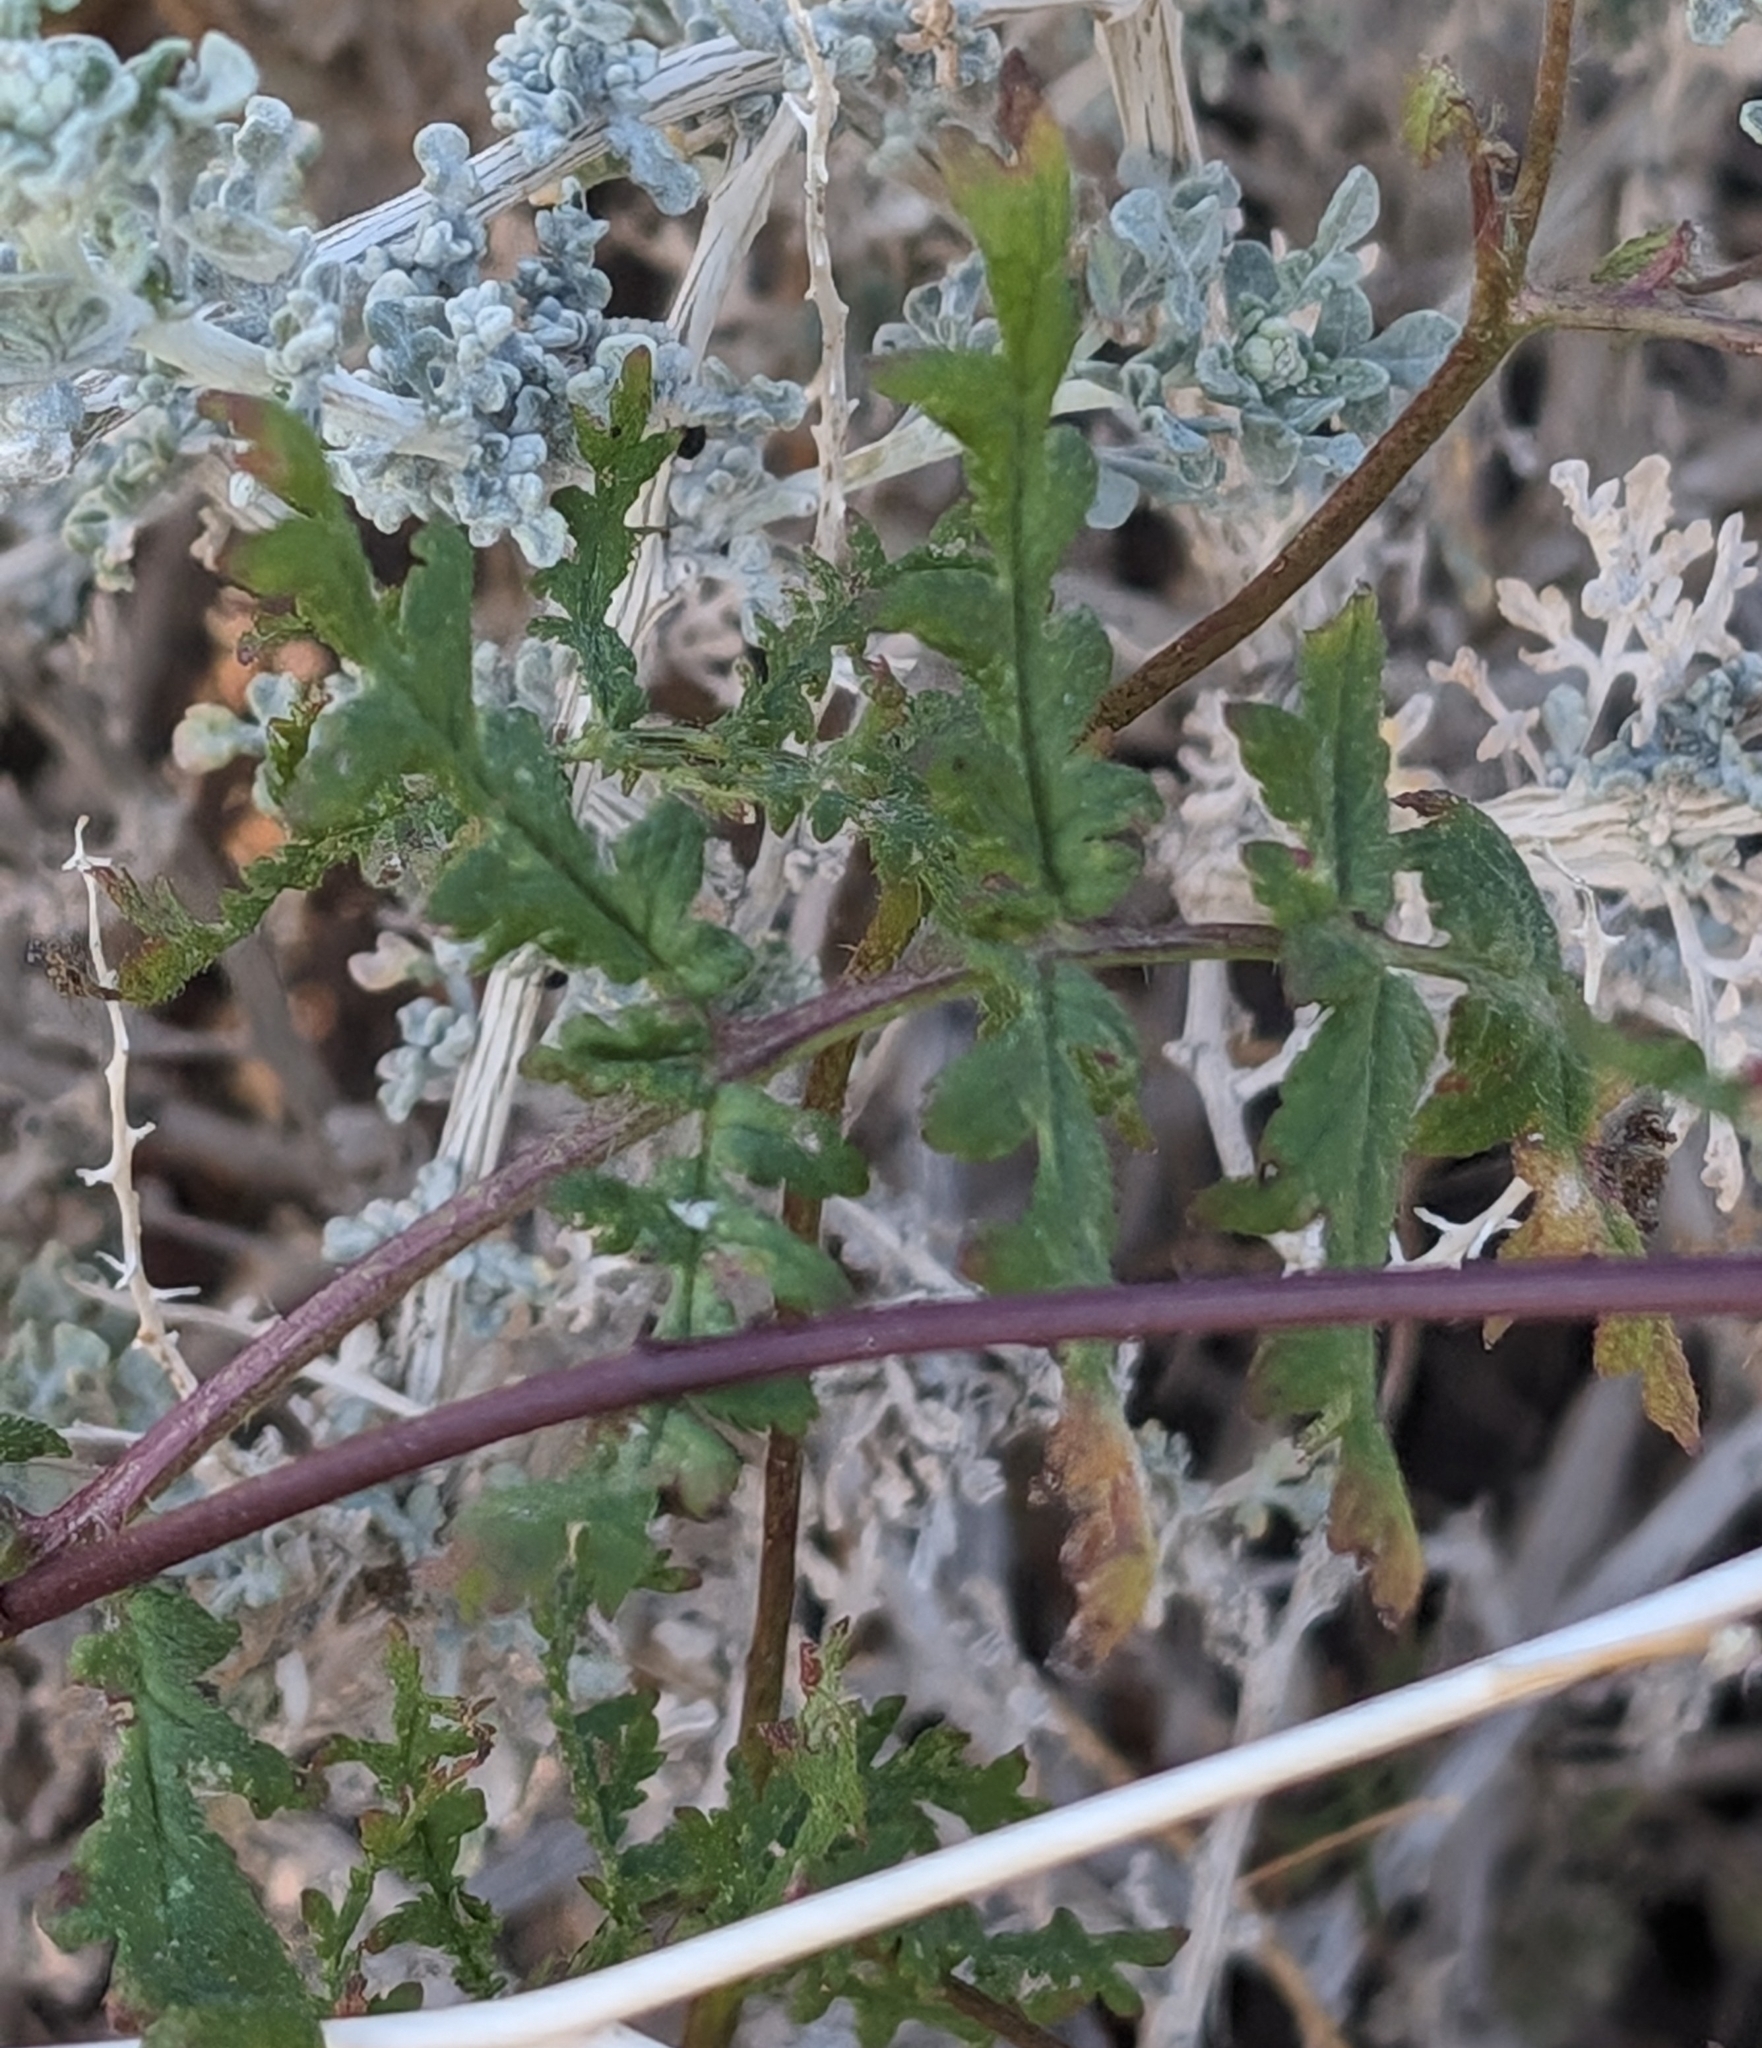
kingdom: Plantae
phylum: Tracheophyta
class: Magnoliopsida
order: Boraginales
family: Hydrophyllaceae
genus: Phacelia
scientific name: Phacelia distans
